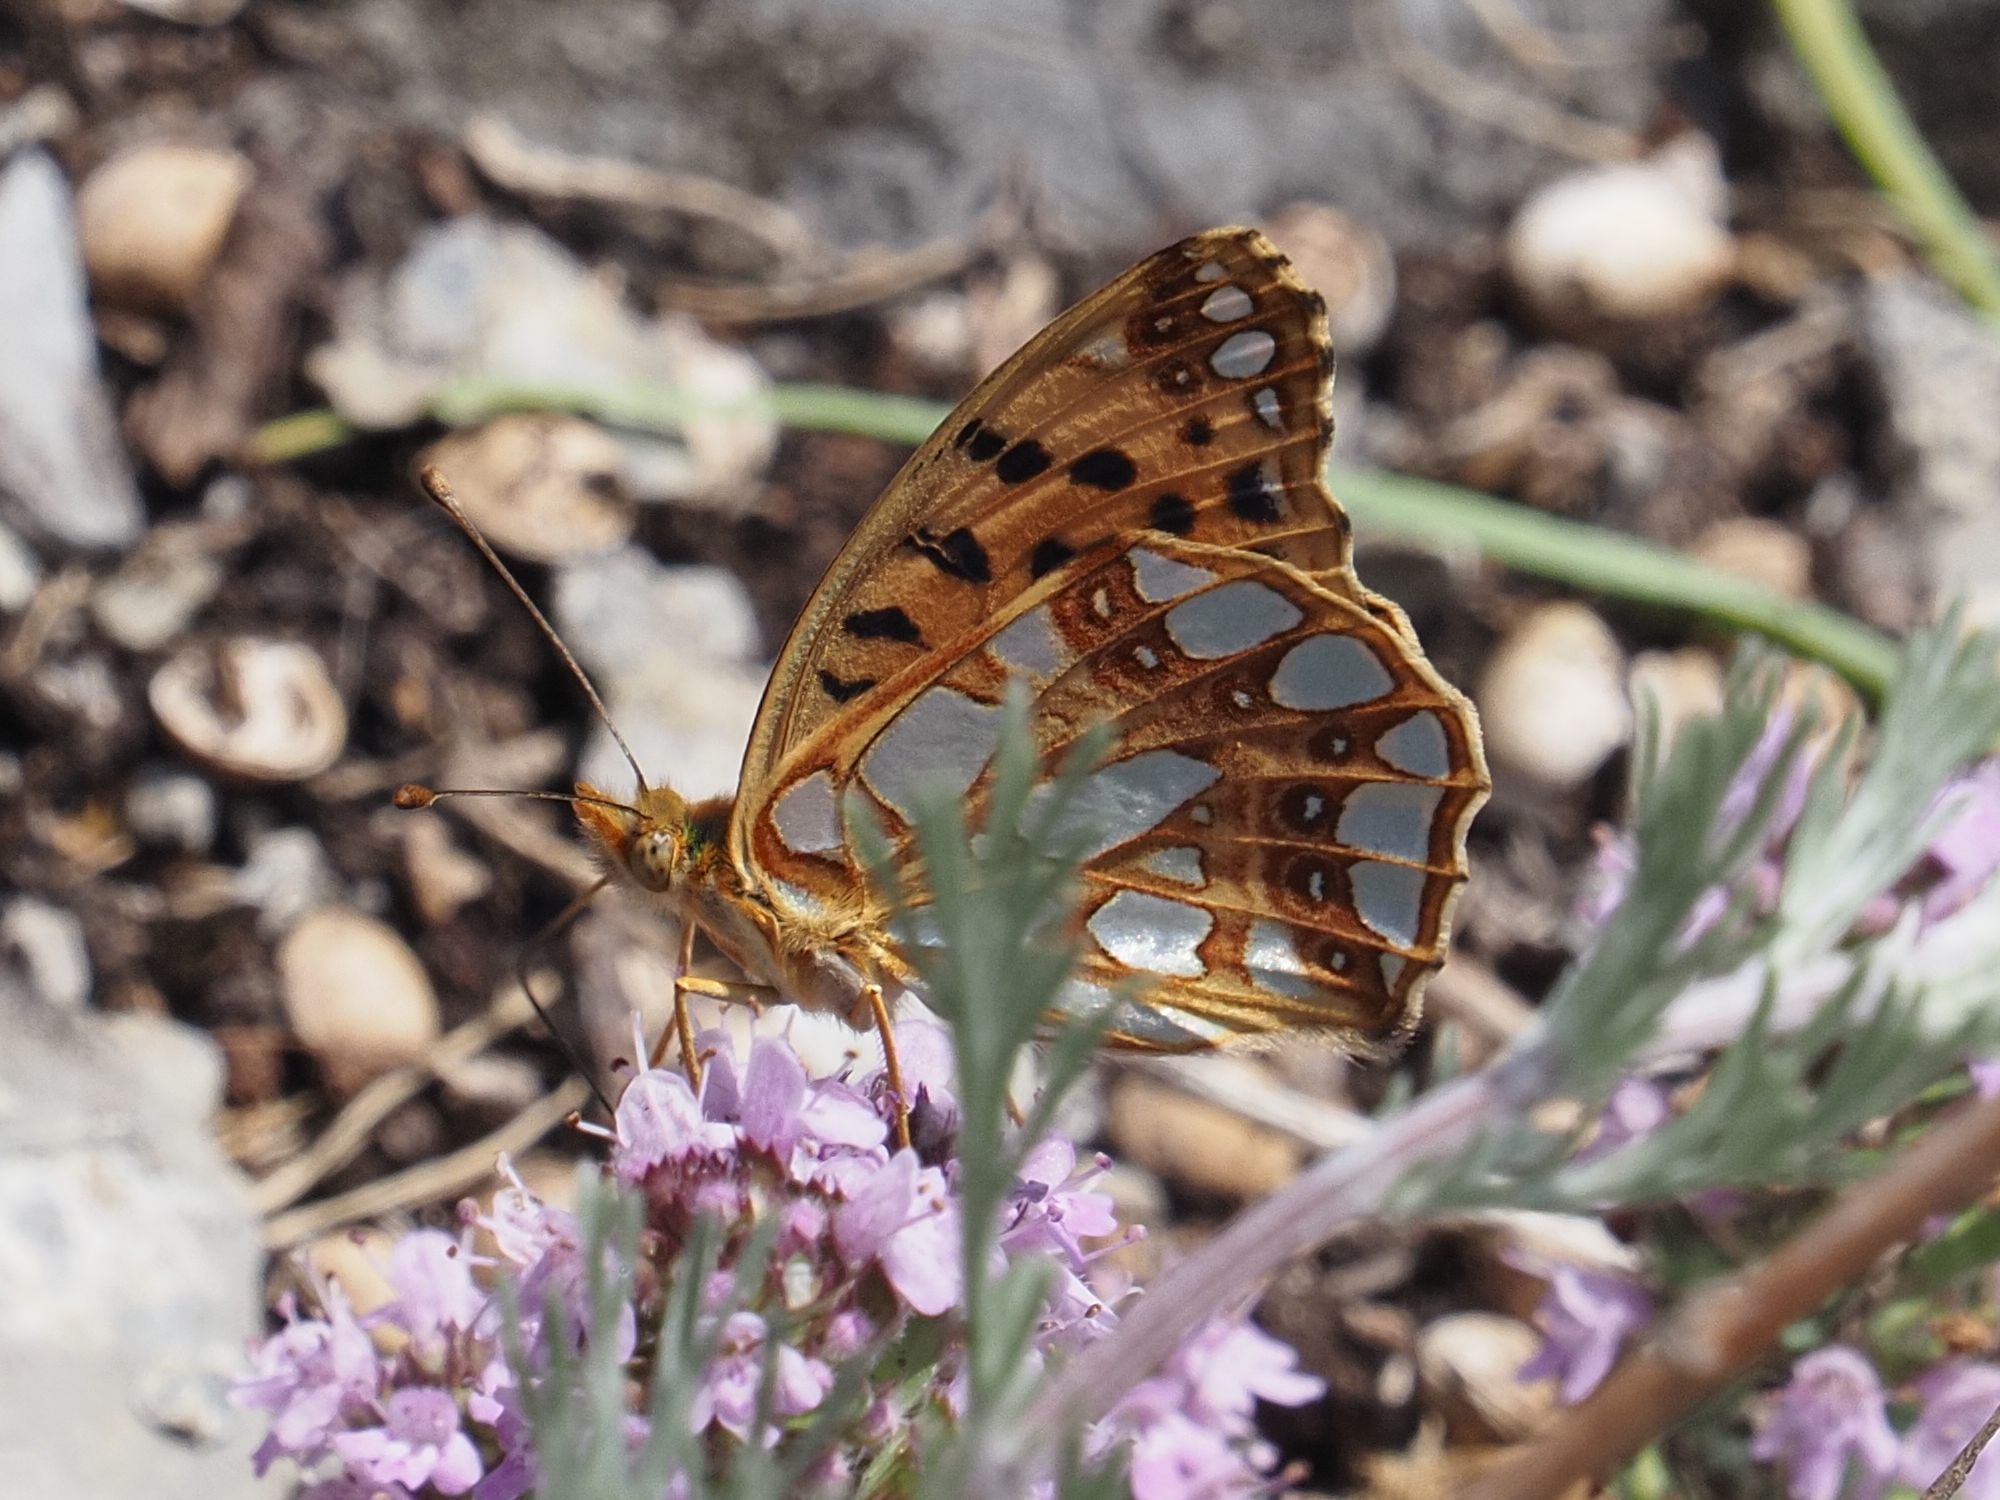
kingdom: Animalia
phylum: Arthropoda
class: Insecta
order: Lepidoptera
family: Nymphalidae
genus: Issoria
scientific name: Issoria lathonia
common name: Queen of spain fritillary
